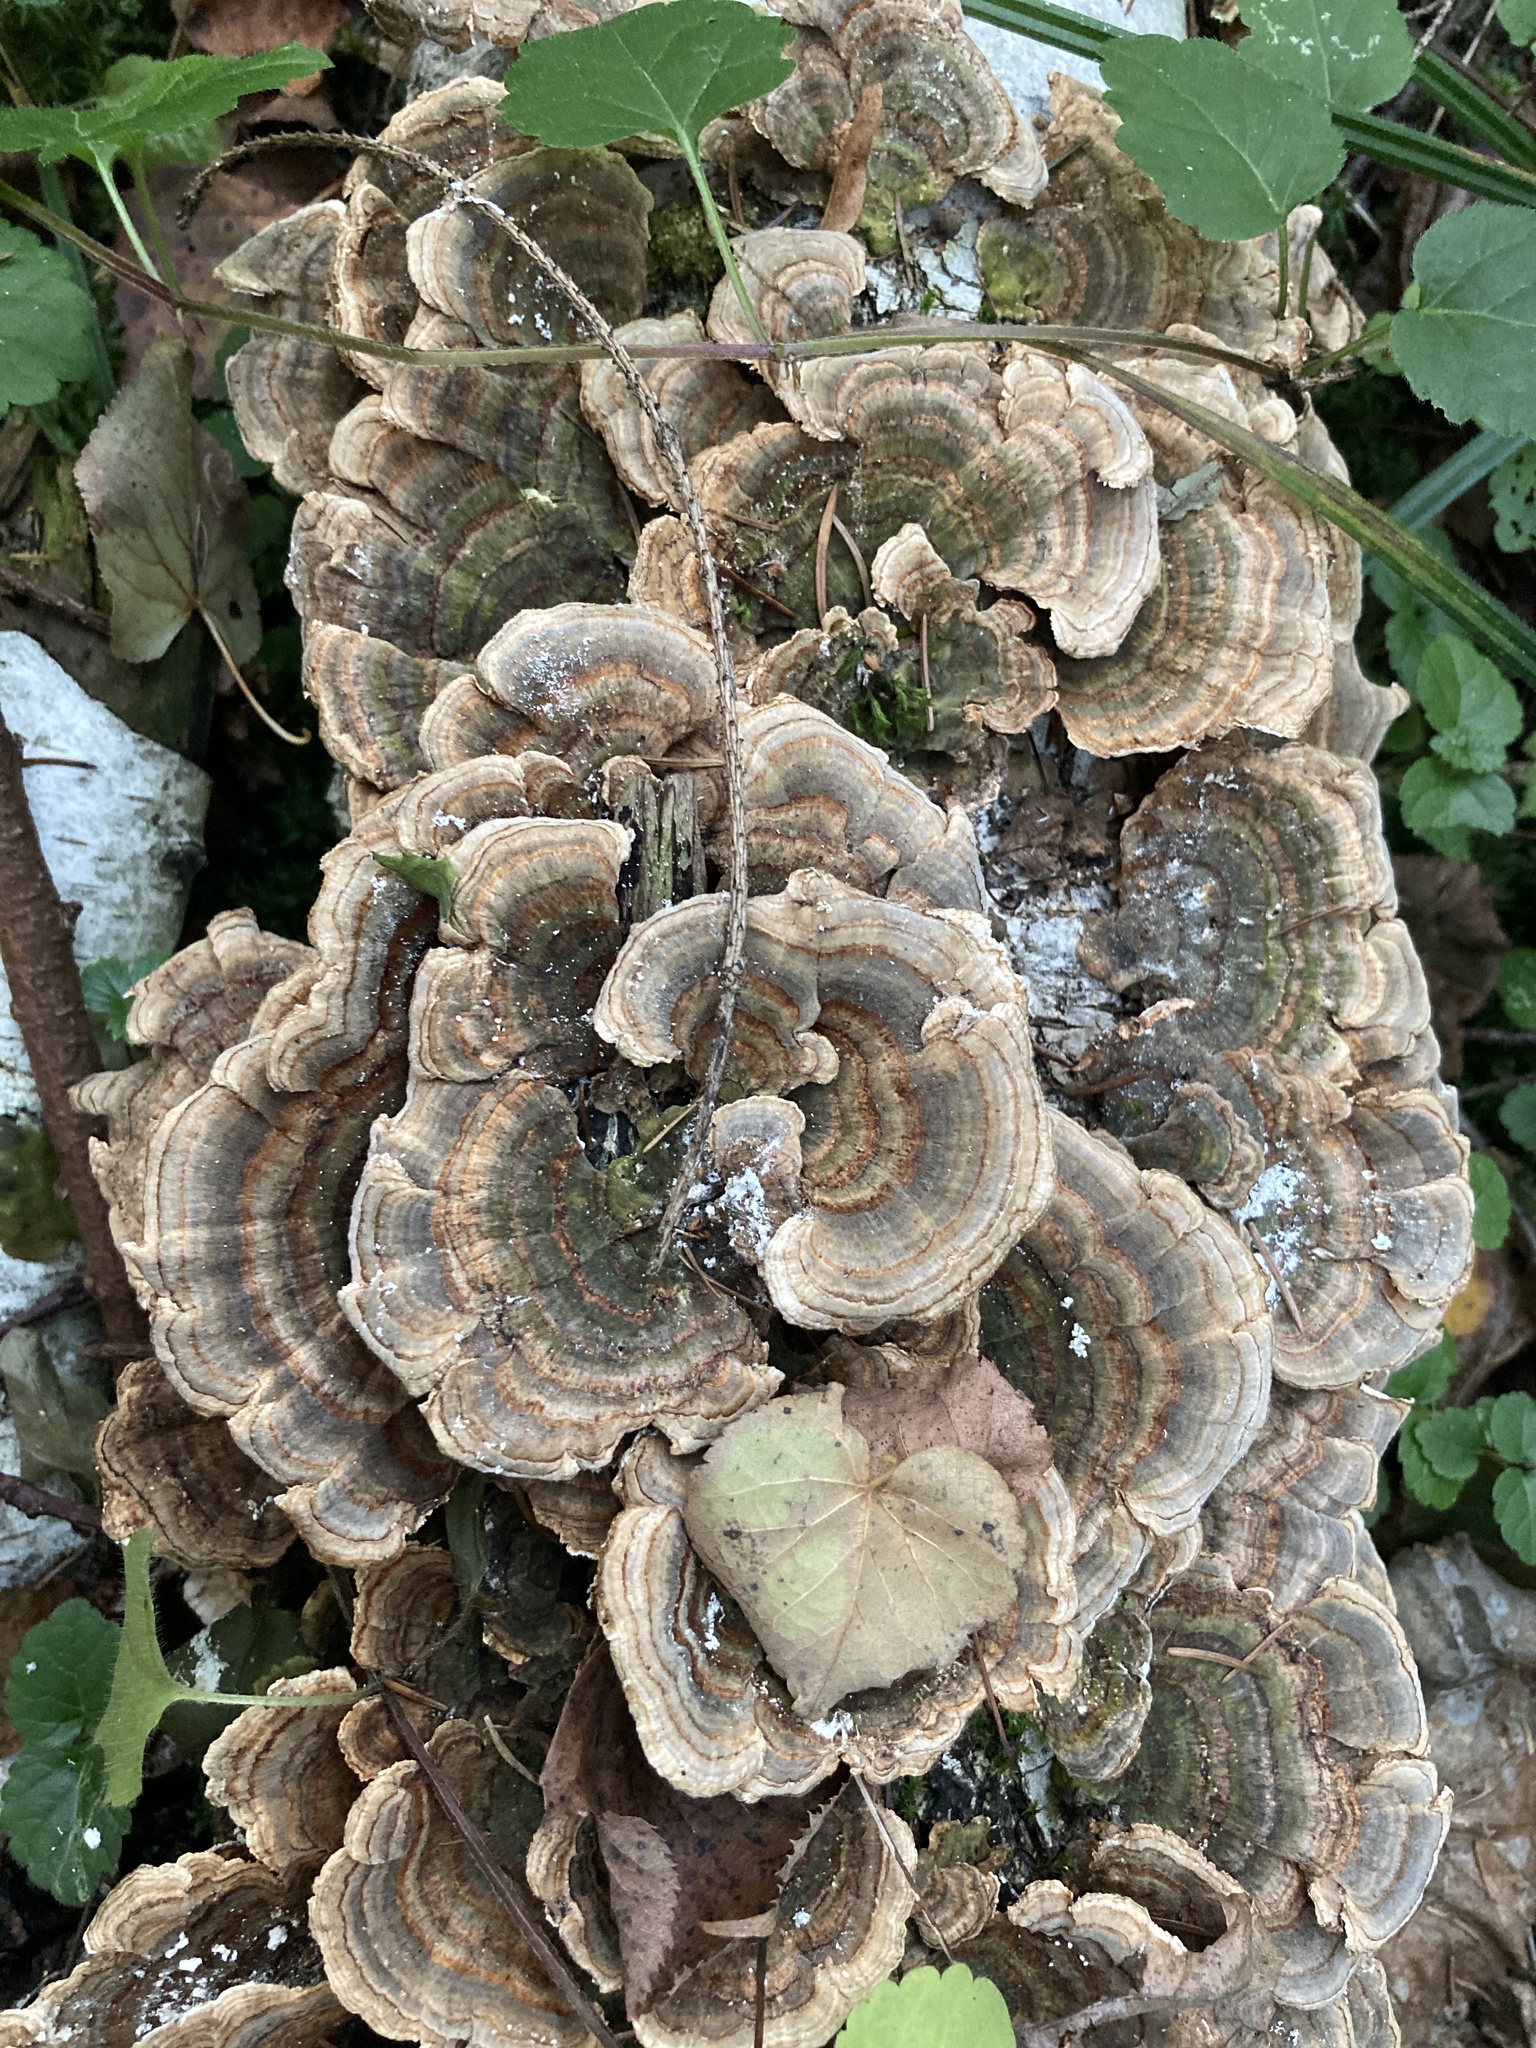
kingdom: Fungi
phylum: Basidiomycota
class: Agaricomycetes
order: Polyporales
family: Polyporaceae
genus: Trametes
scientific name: Trametes versicolor
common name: Turkeytail
